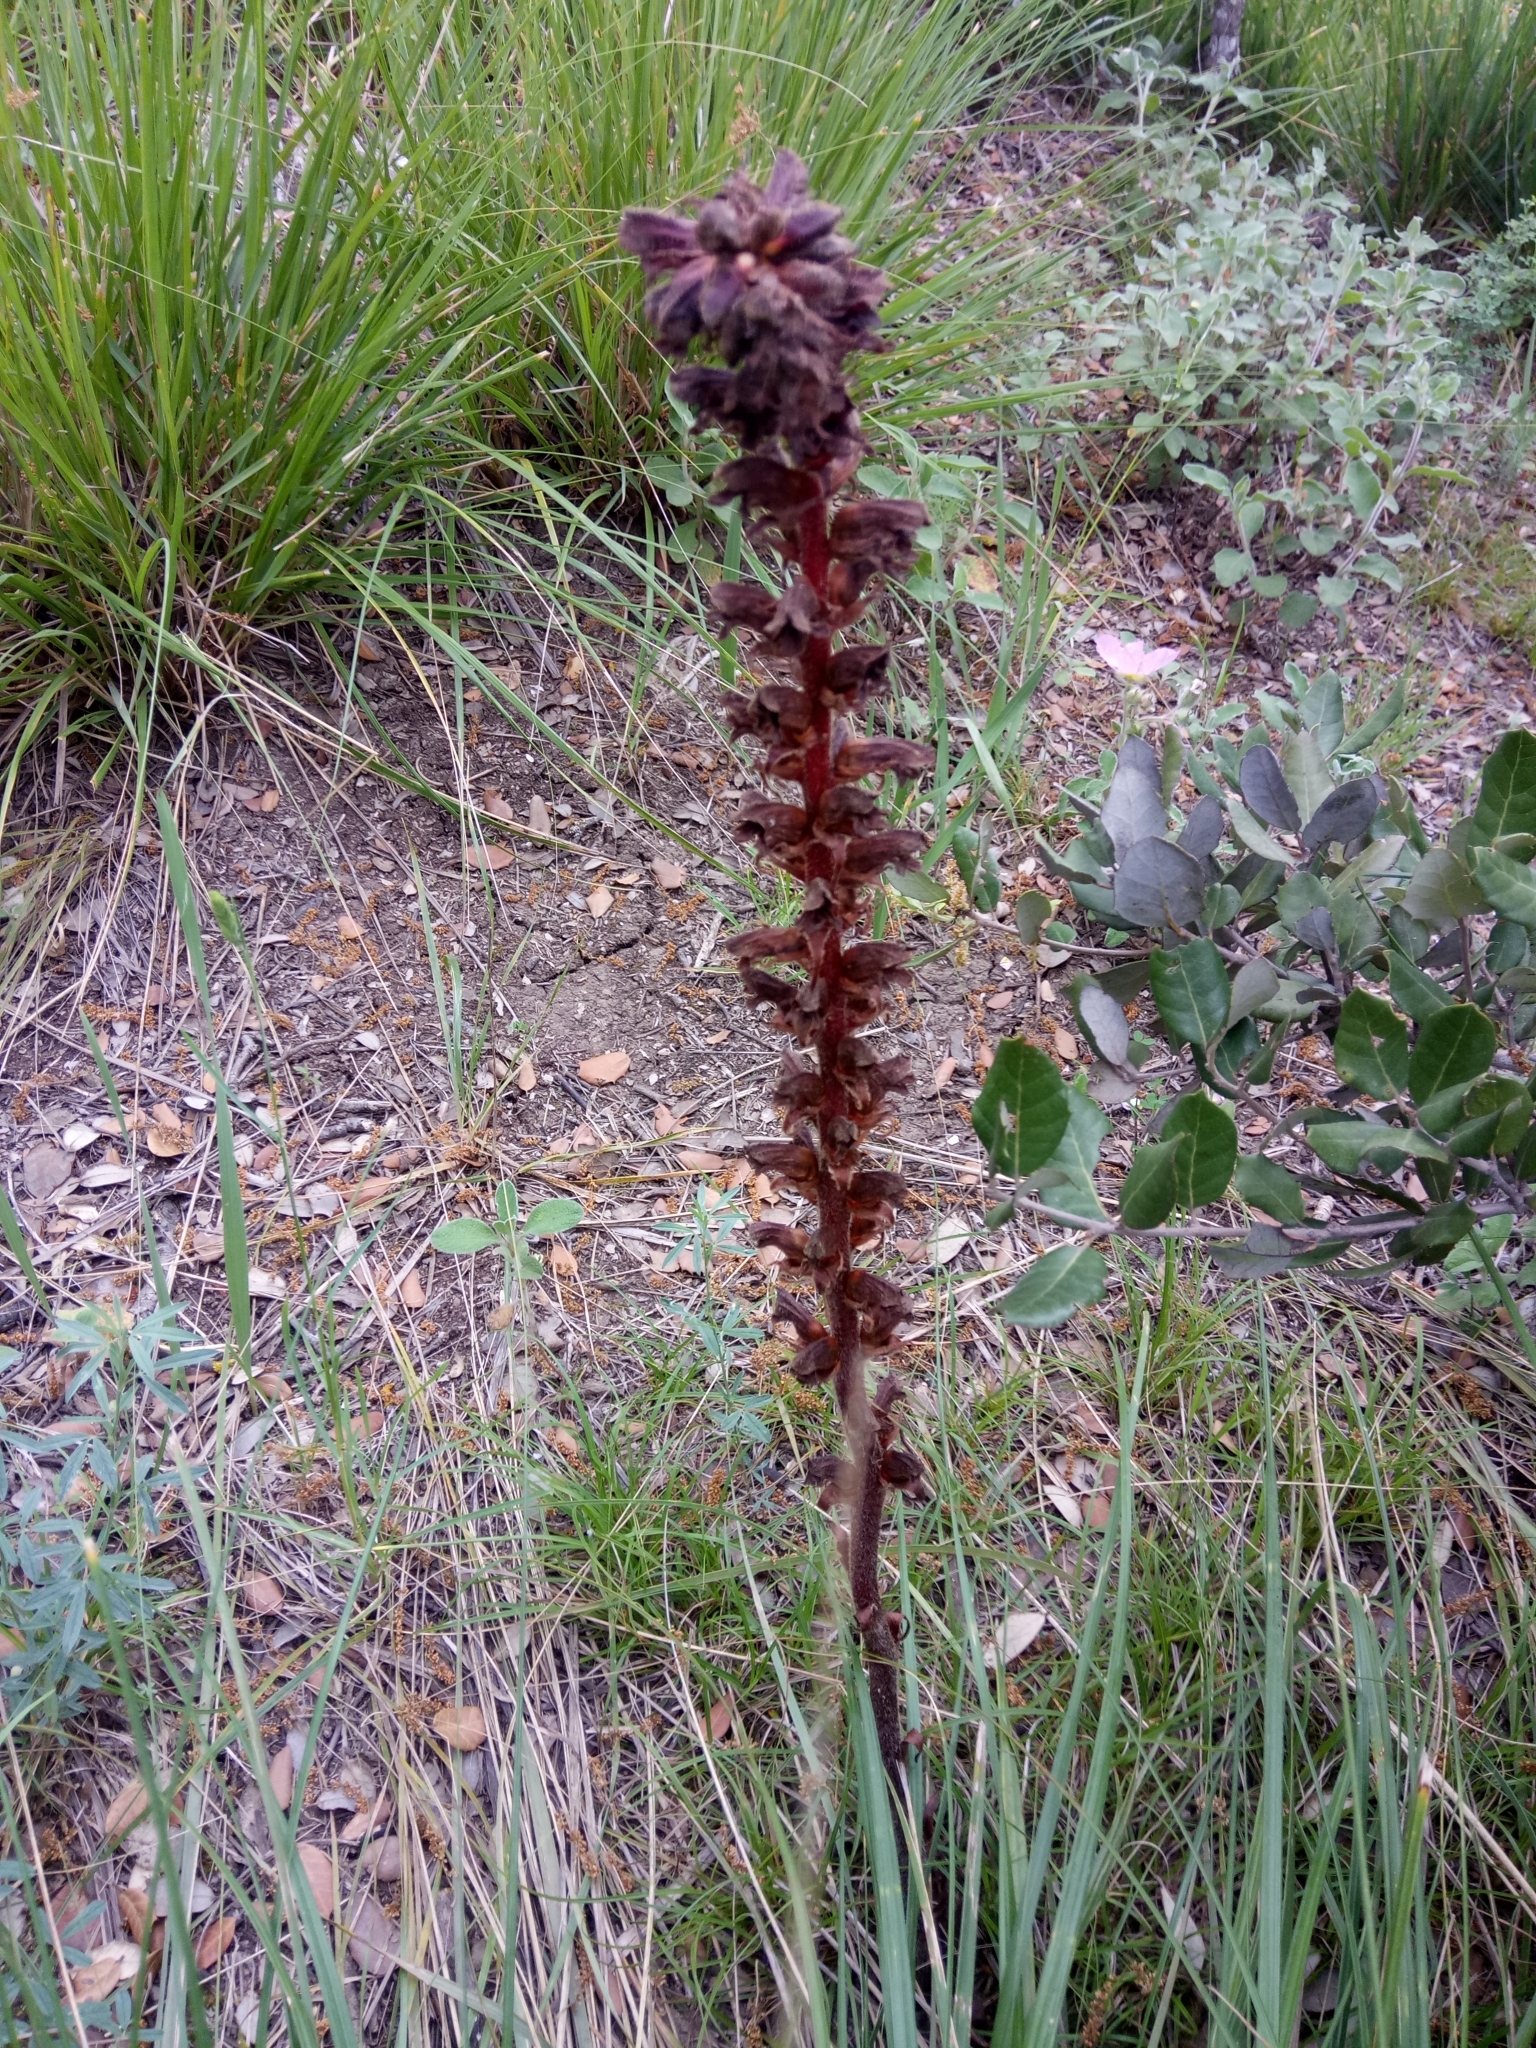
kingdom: Plantae
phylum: Tracheophyta
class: Magnoliopsida
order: Lamiales
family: Orobanchaceae
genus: Orobanche
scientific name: Orobanche variegata
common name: Variegated broomrape
